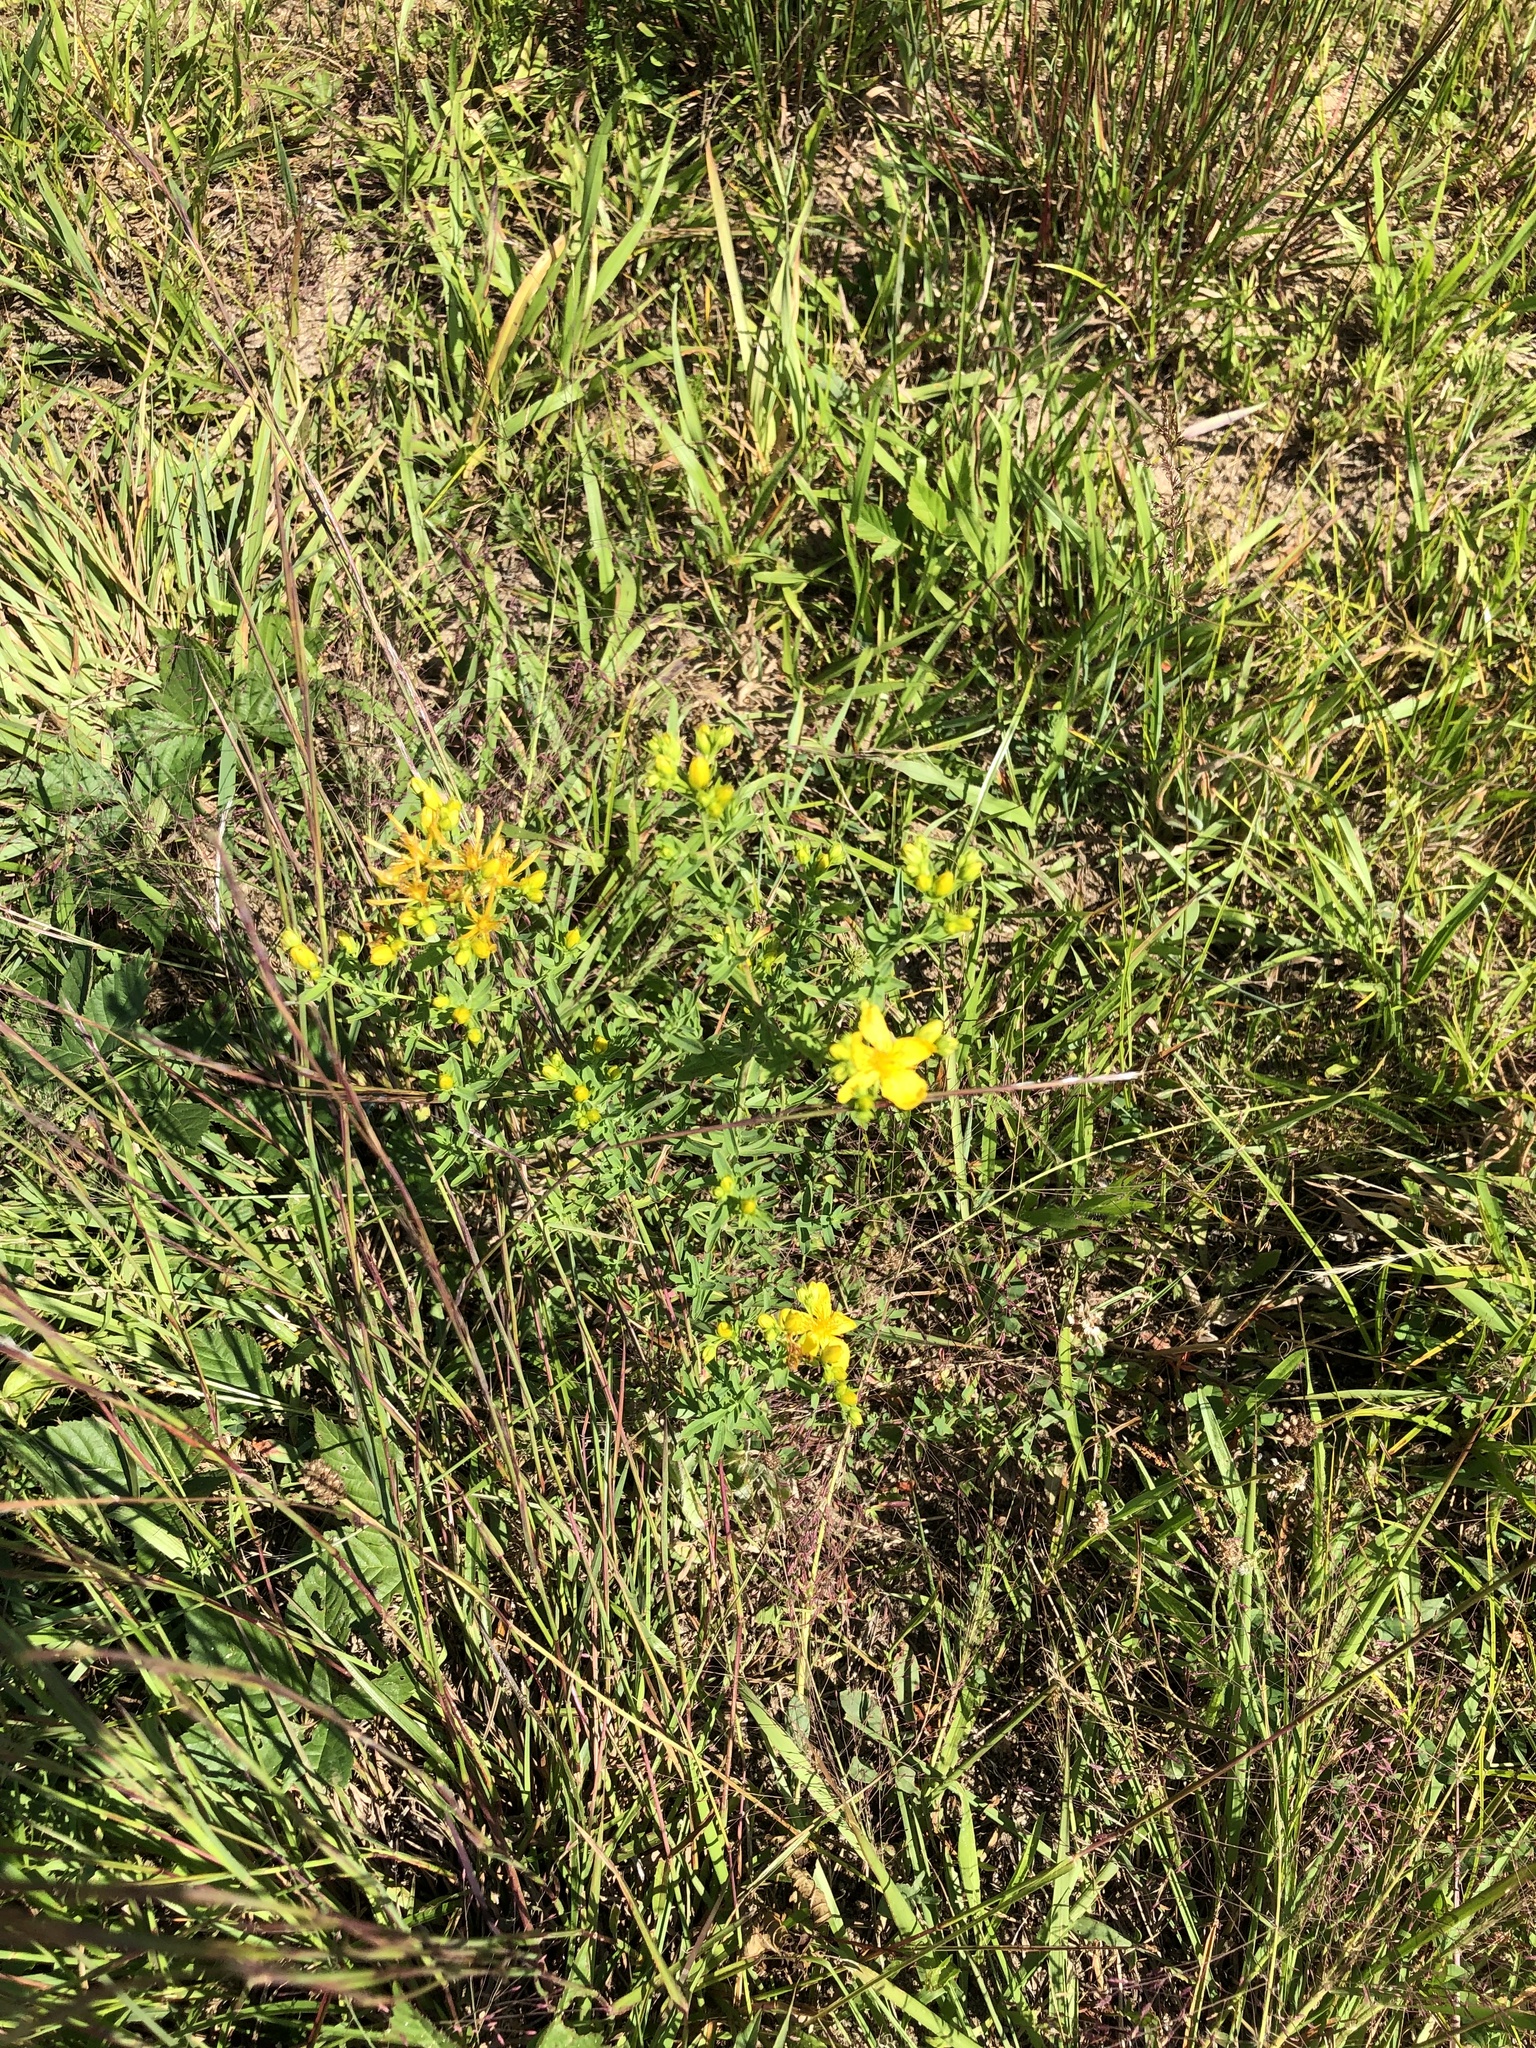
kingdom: Plantae
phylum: Tracheophyta
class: Magnoliopsida
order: Malpighiales
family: Hypericaceae
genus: Hypericum
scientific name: Hypericum perforatum
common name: Common st. johnswort
